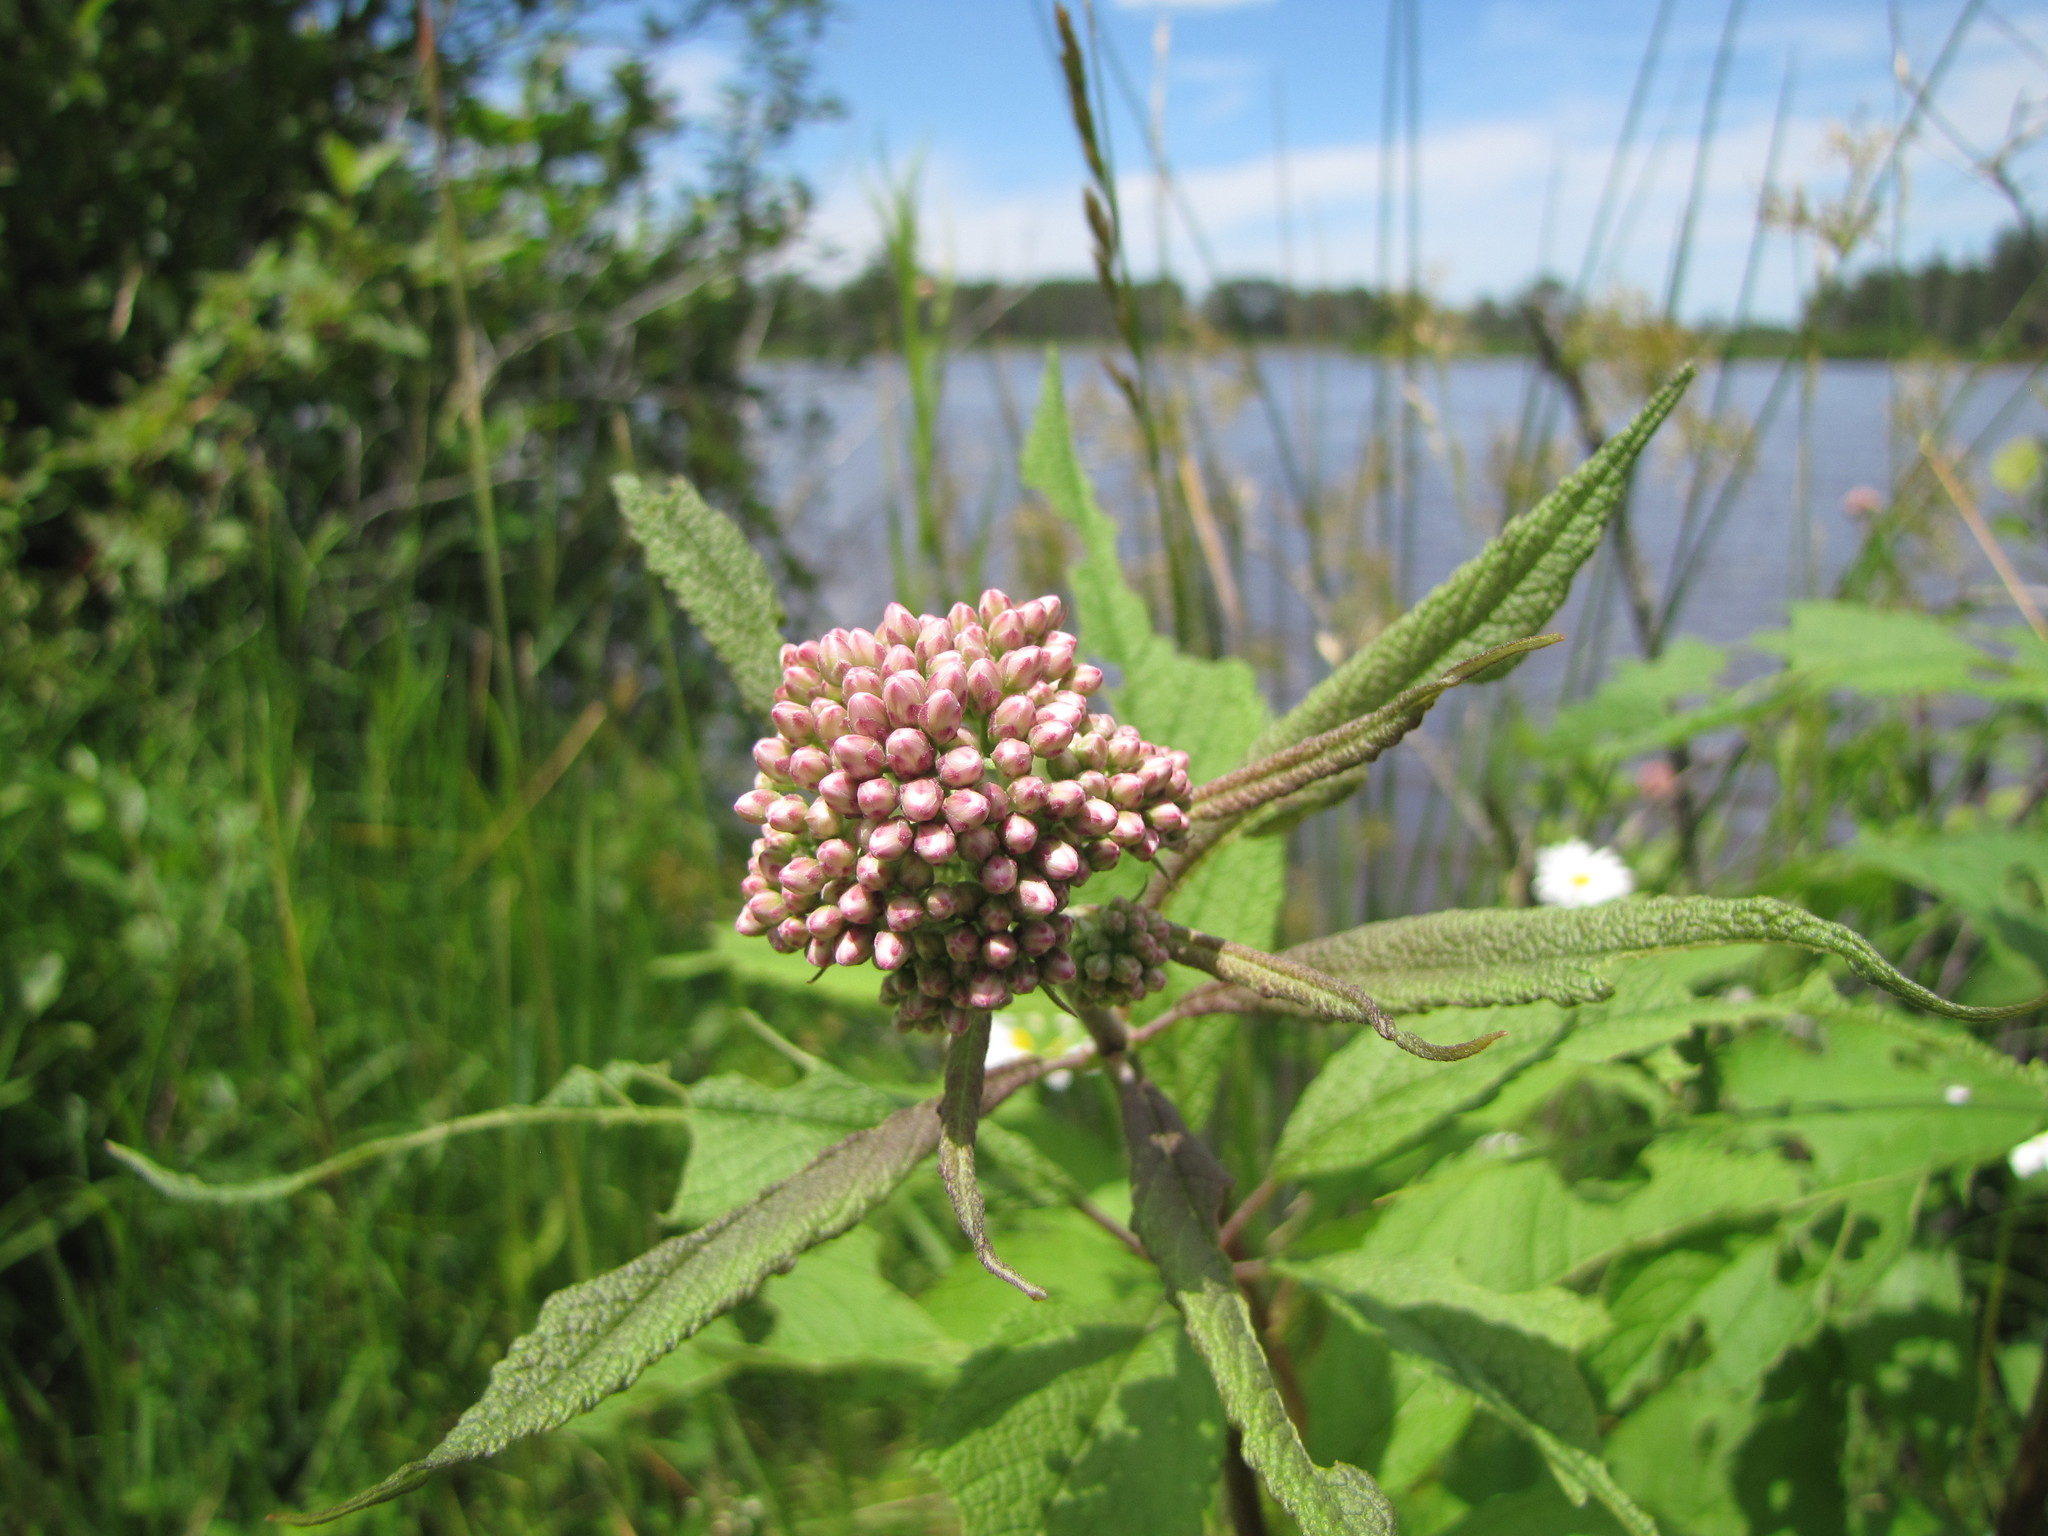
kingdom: Plantae
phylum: Tracheophyta
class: Magnoliopsida
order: Asterales
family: Asteraceae
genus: Eutrochium
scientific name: Eutrochium maculatum
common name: Spotted joe pye weed
